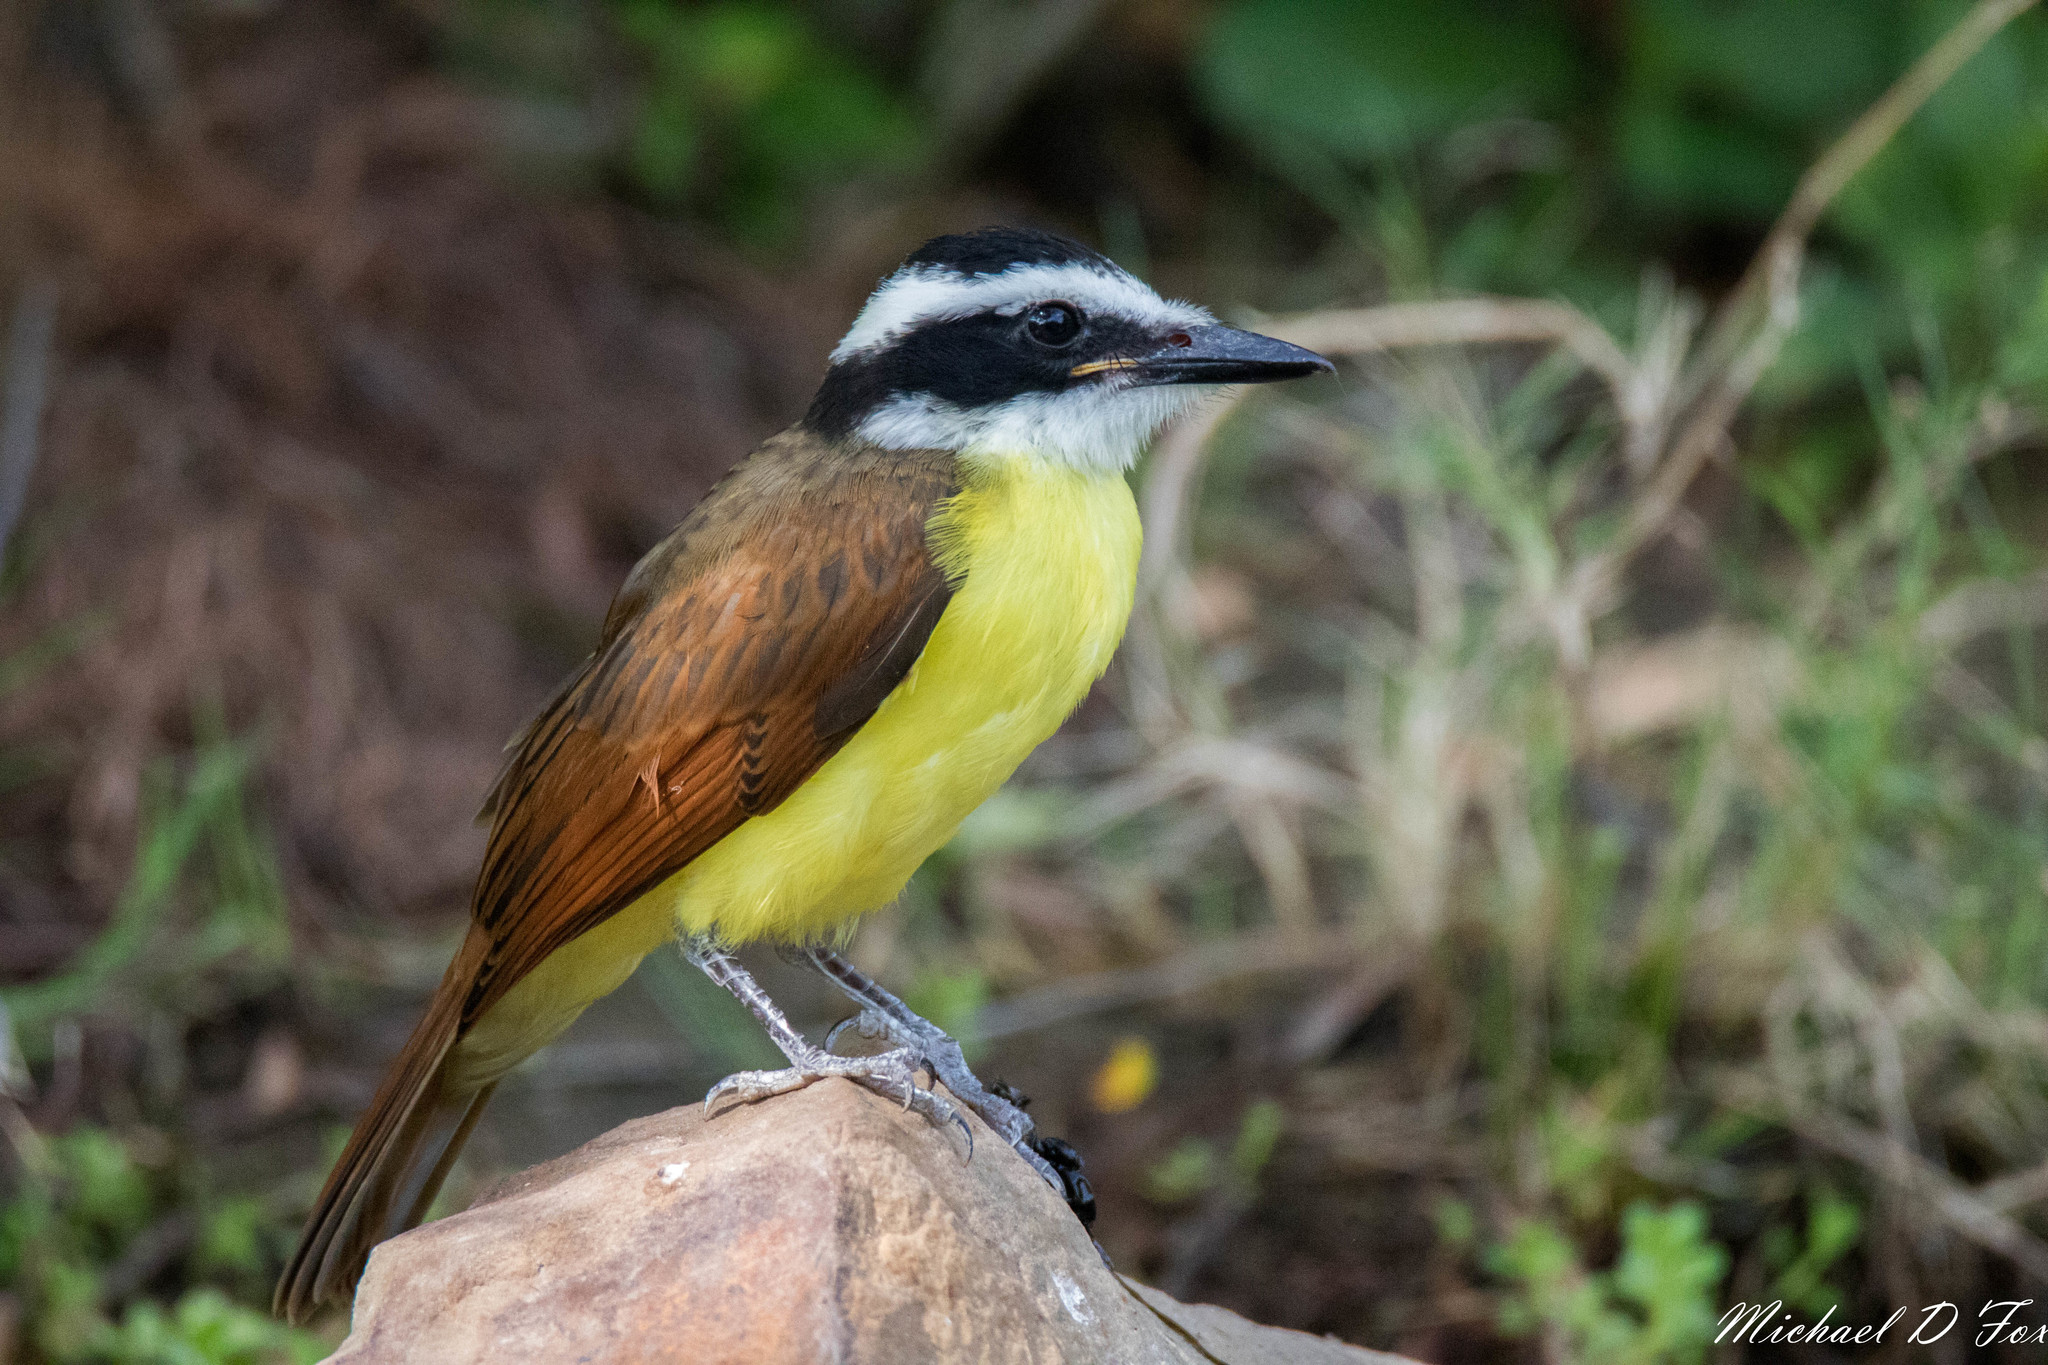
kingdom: Animalia
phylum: Chordata
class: Aves
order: Passeriformes
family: Tyrannidae
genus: Pitangus
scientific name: Pitangus sulphuratus
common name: Great kiskadee
